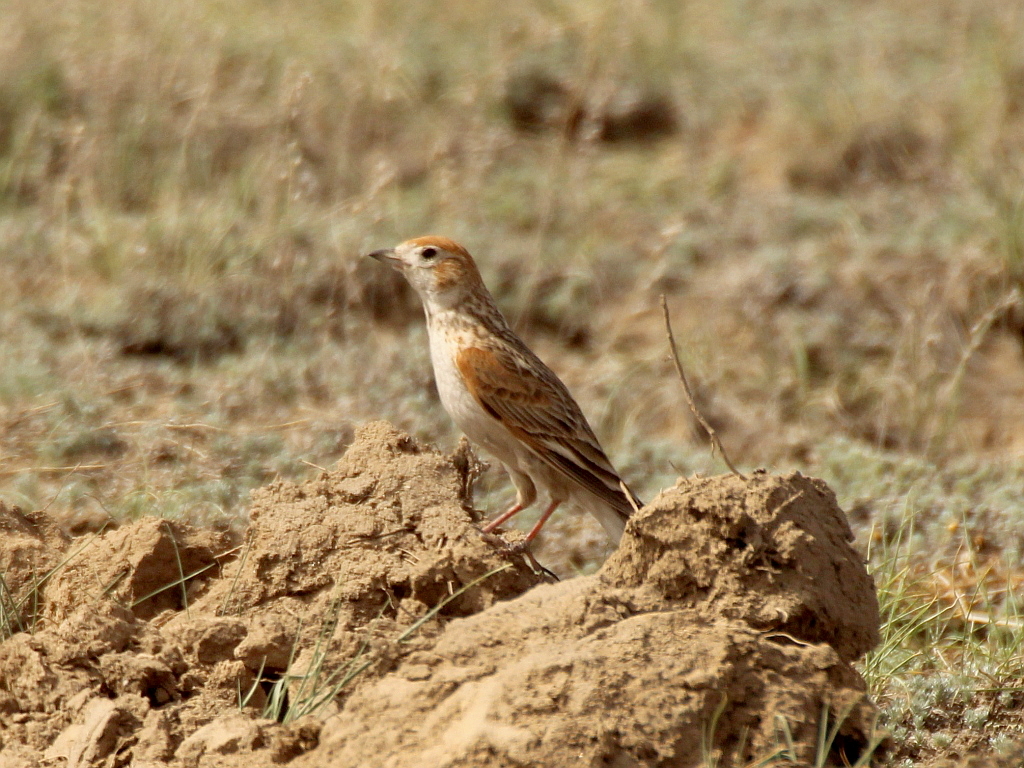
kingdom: Animalia
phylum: Chordata
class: Aves
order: Passeriformes
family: Alaudidae
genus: Melanocorypha
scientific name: Melanocorypha leucoptera
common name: White-winged lark
